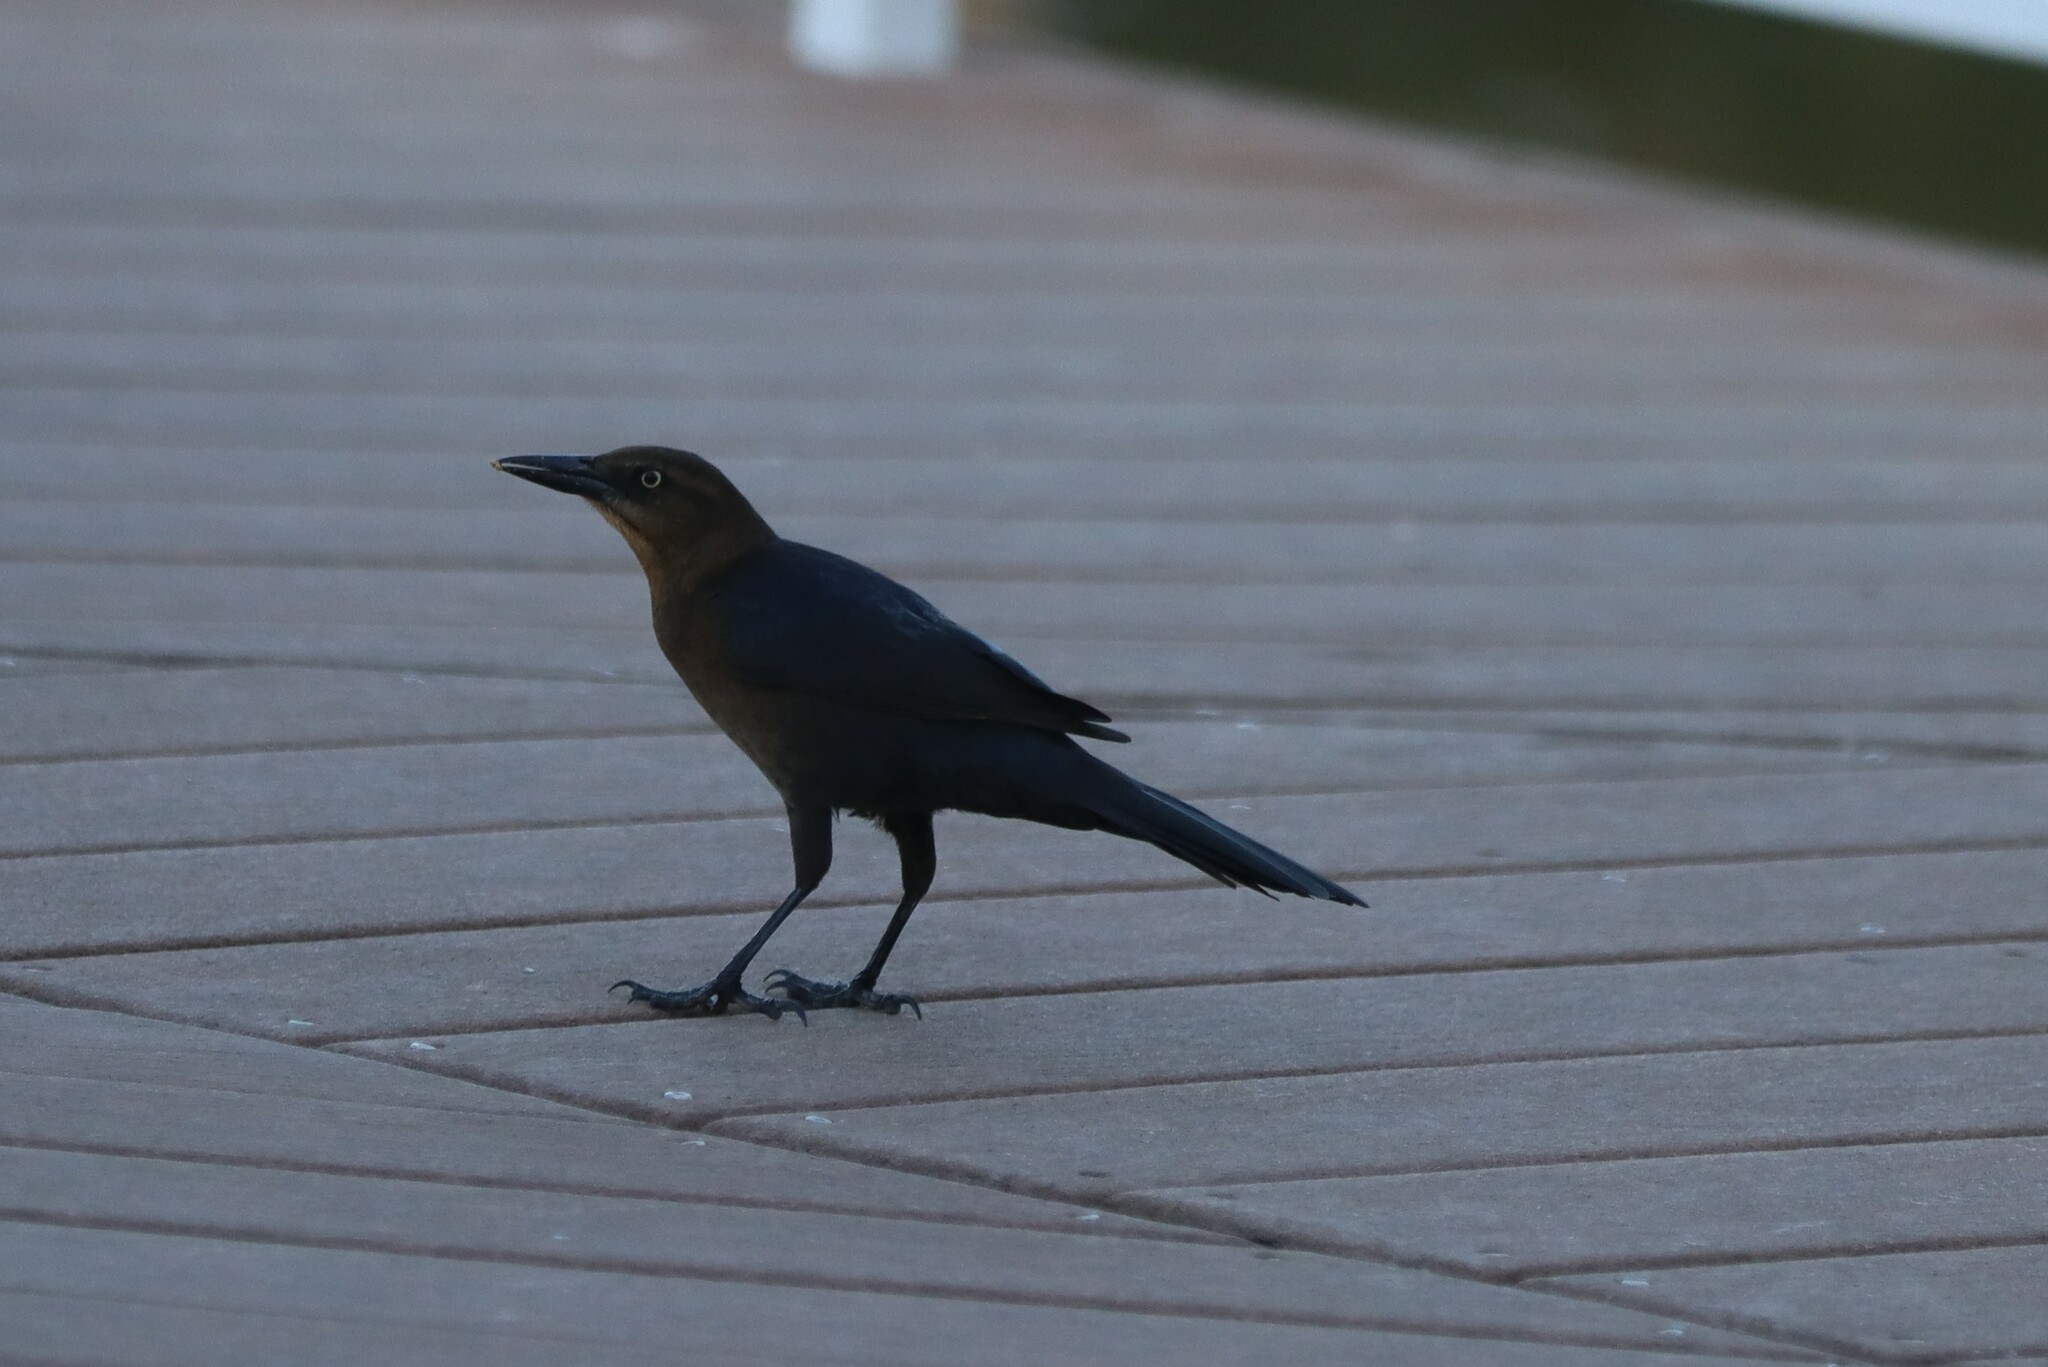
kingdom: Animalia
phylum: Chordata
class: Aves
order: Passeriformes
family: Icteridae
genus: Quiscalus
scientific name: Quiscalus mexicanus
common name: Great-tailed grackle
